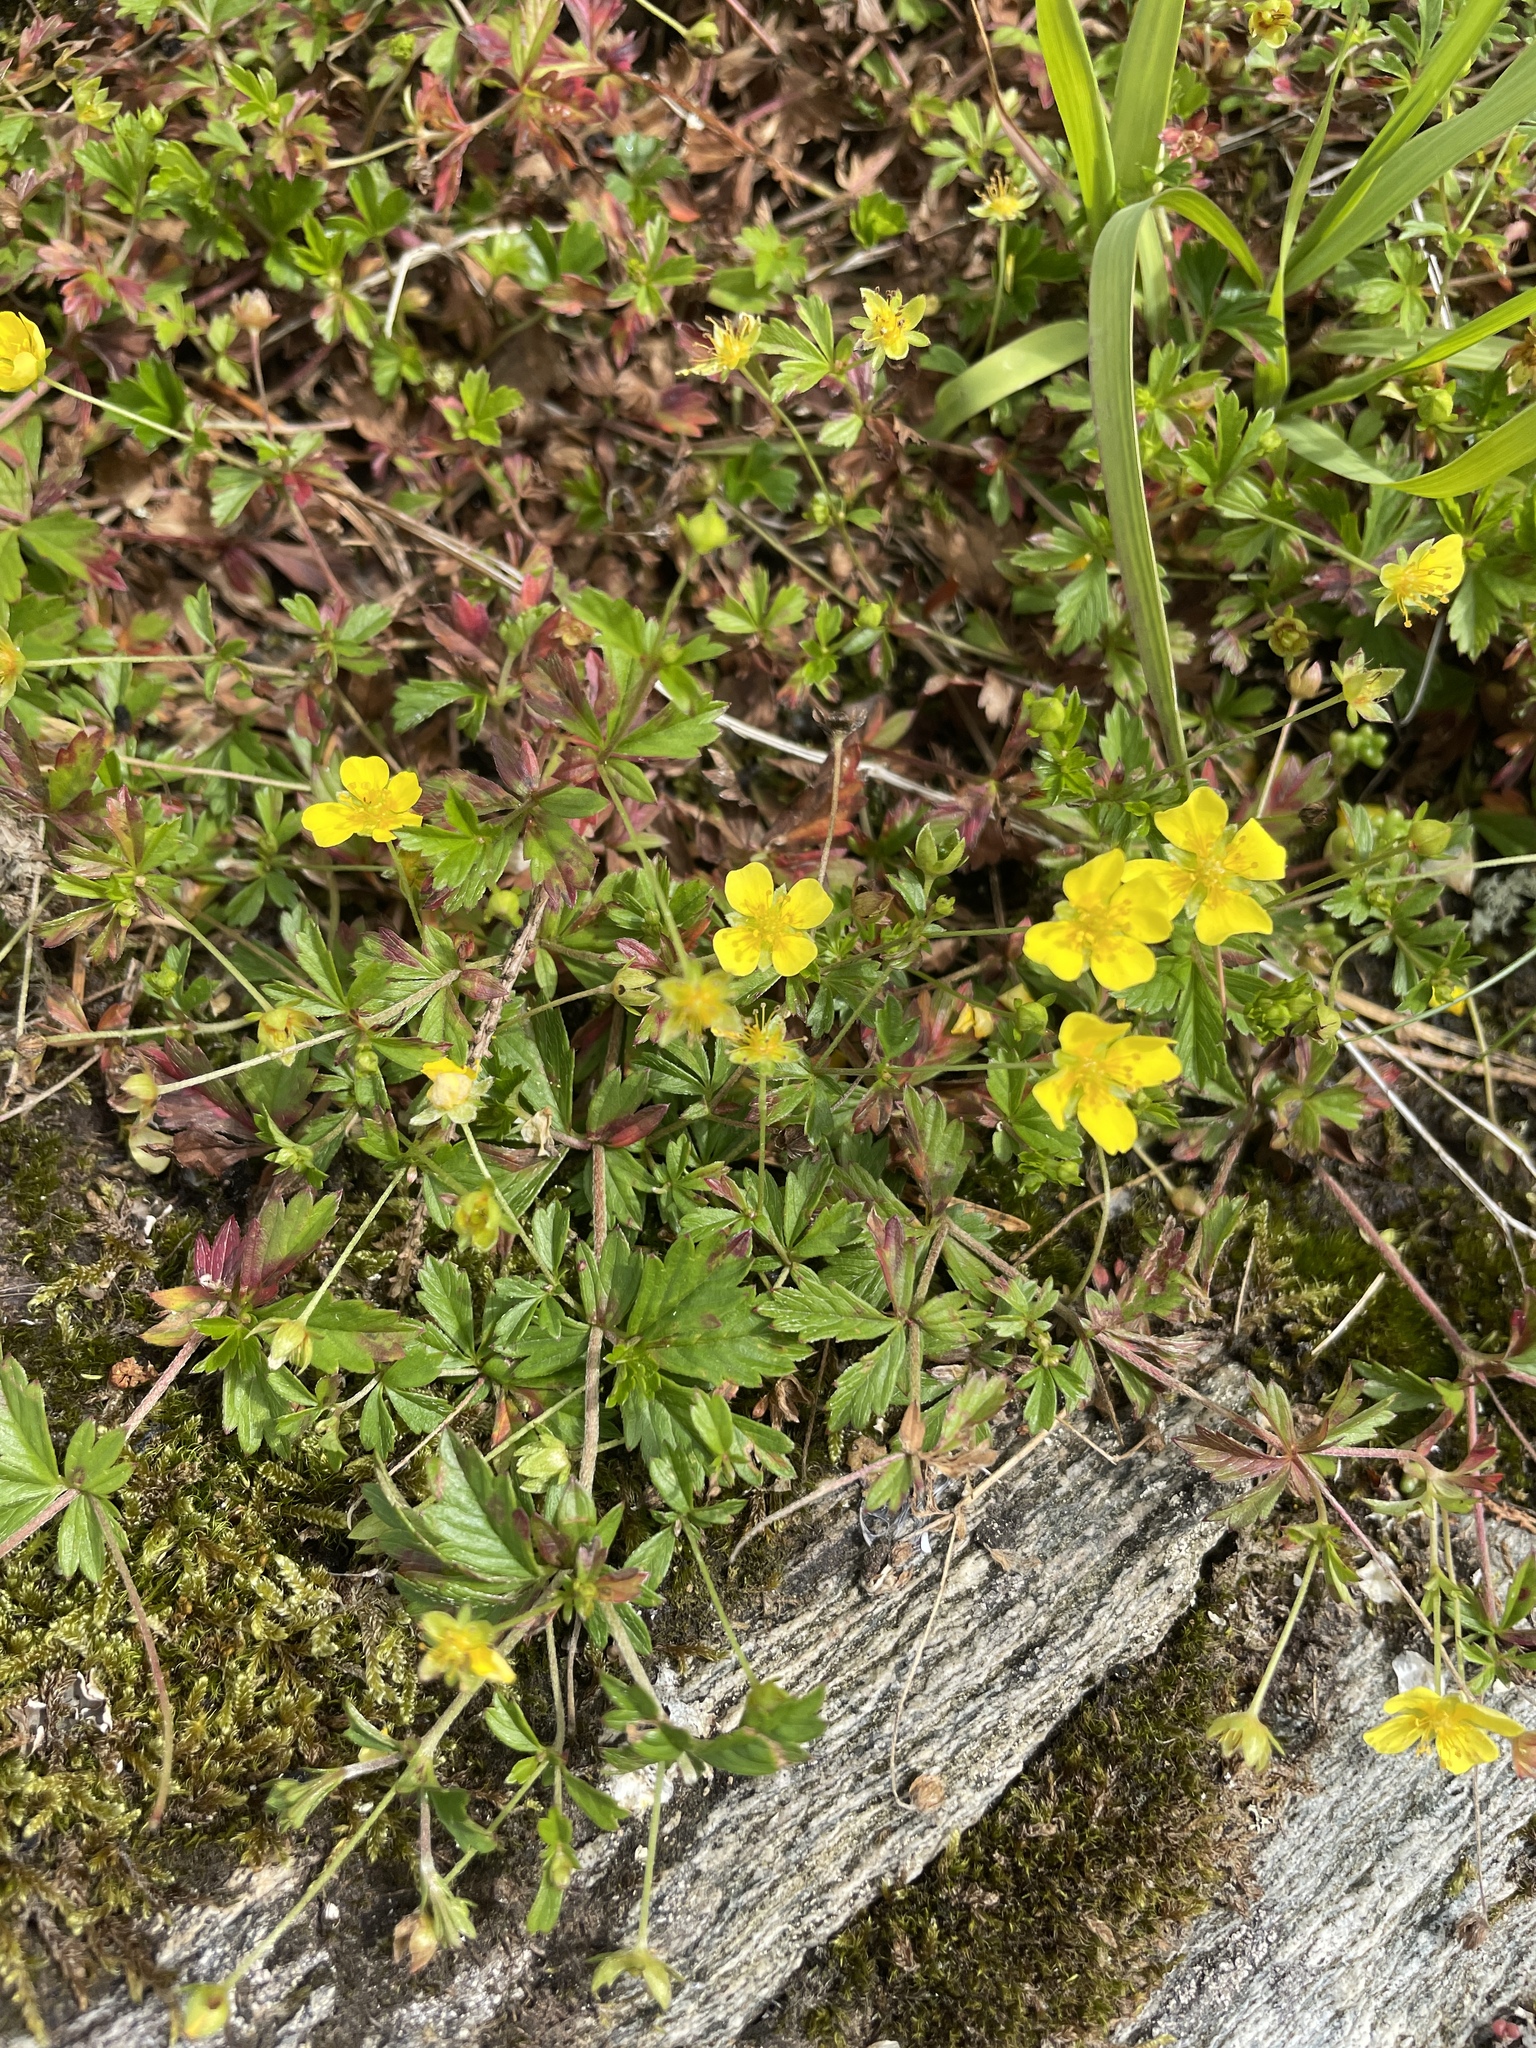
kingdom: Plantae
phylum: Tracheophyta
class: Magnoliopsida
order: Rosales
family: Rosaceae
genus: Potentilla
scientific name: Potentilla erecta
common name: Tormentil
